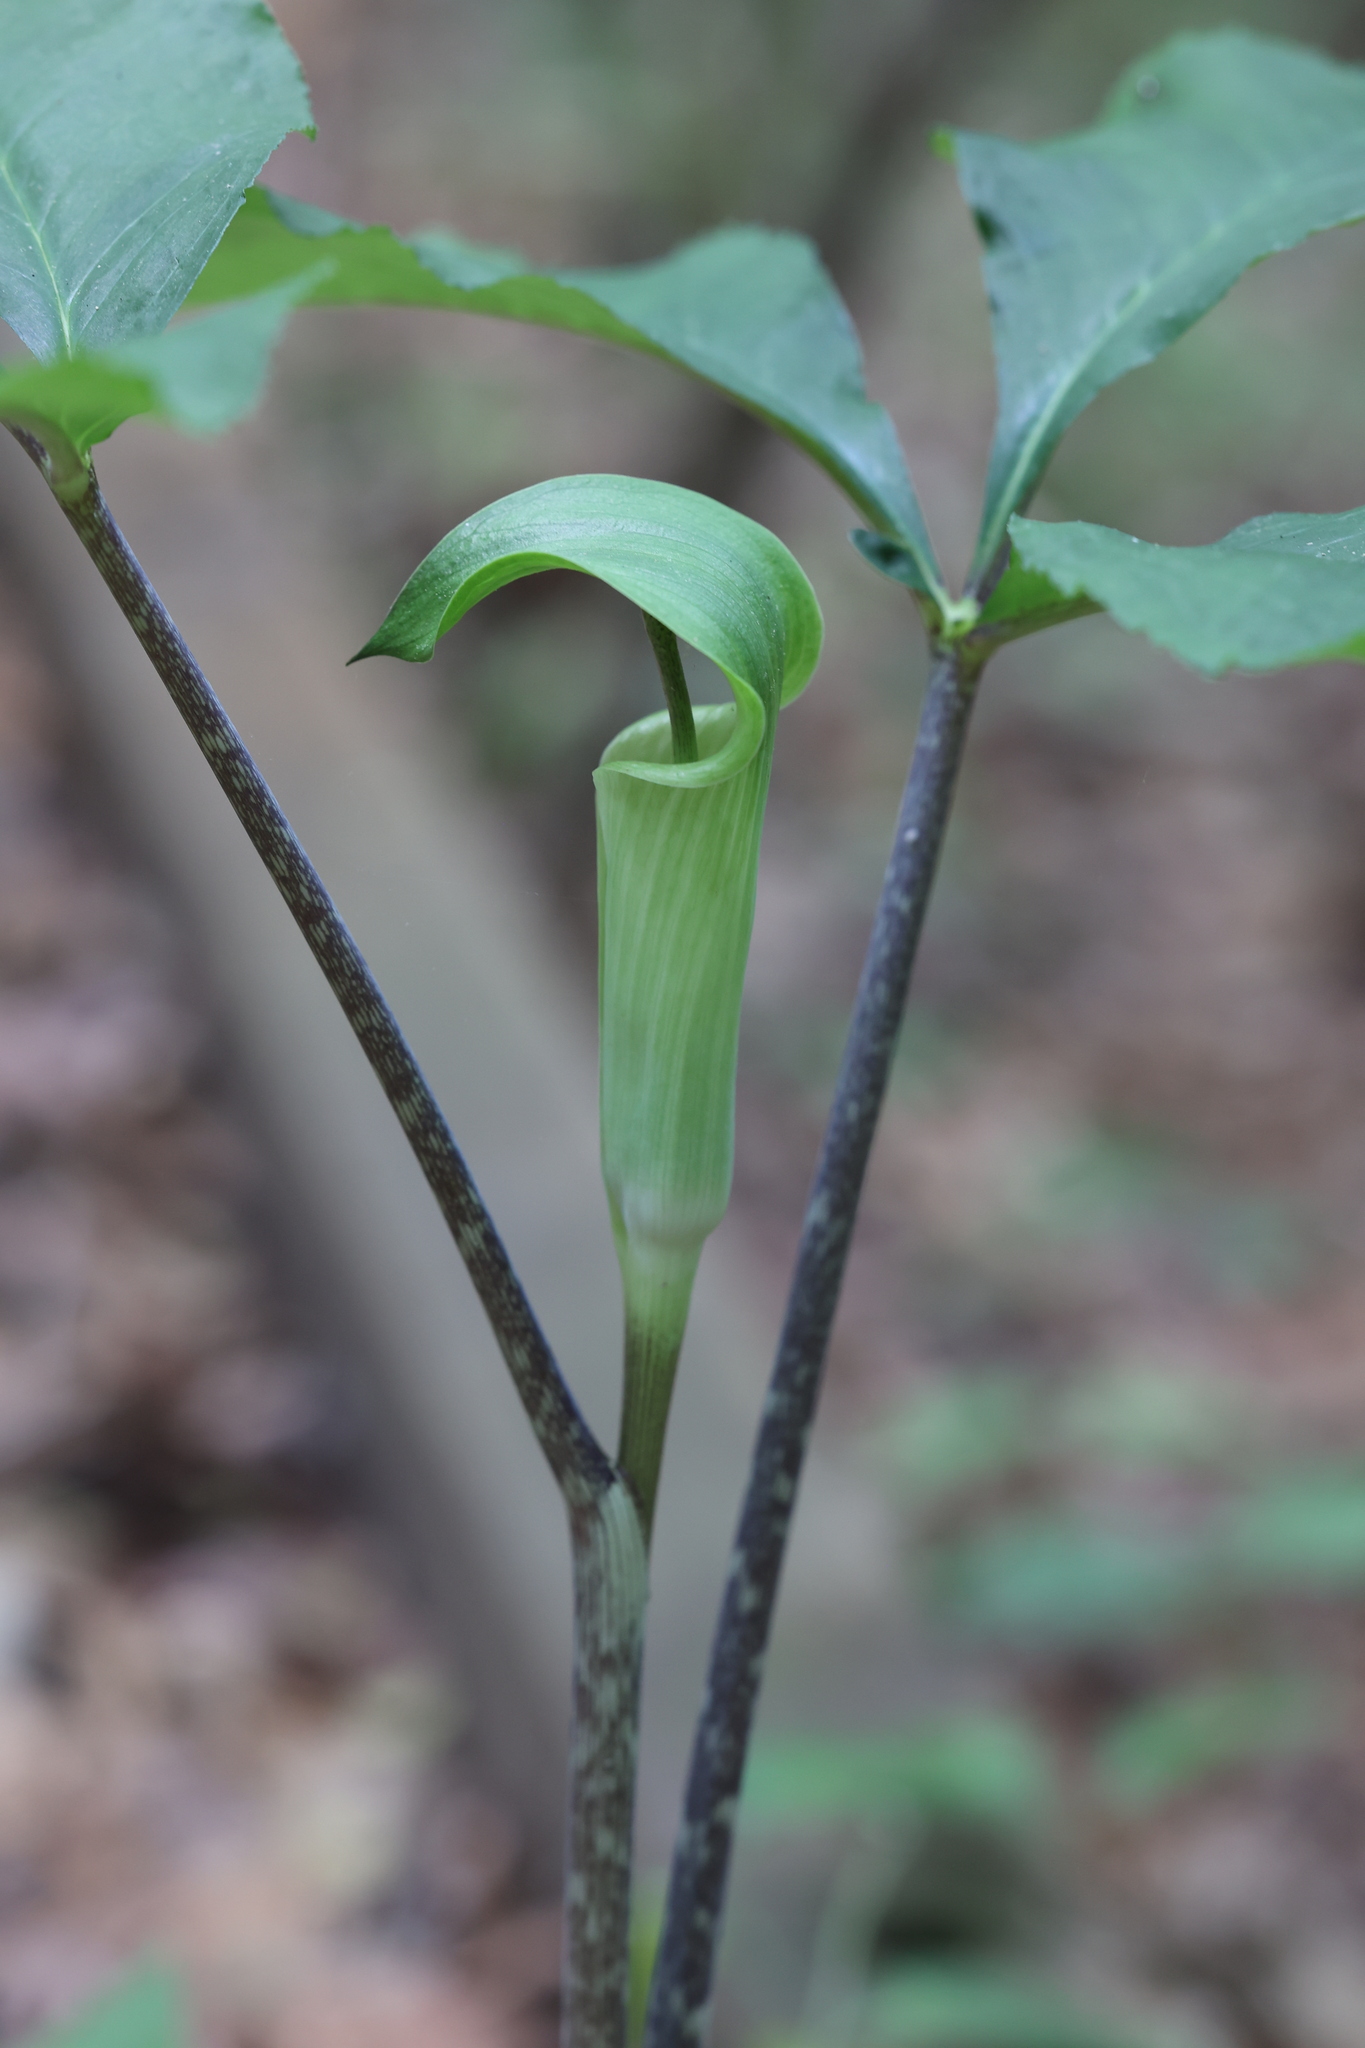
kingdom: Plantae
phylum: Tracheophyta
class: Liliopsida
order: Alismatales
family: Araceae
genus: Arisaema
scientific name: Arisaema quinatum
